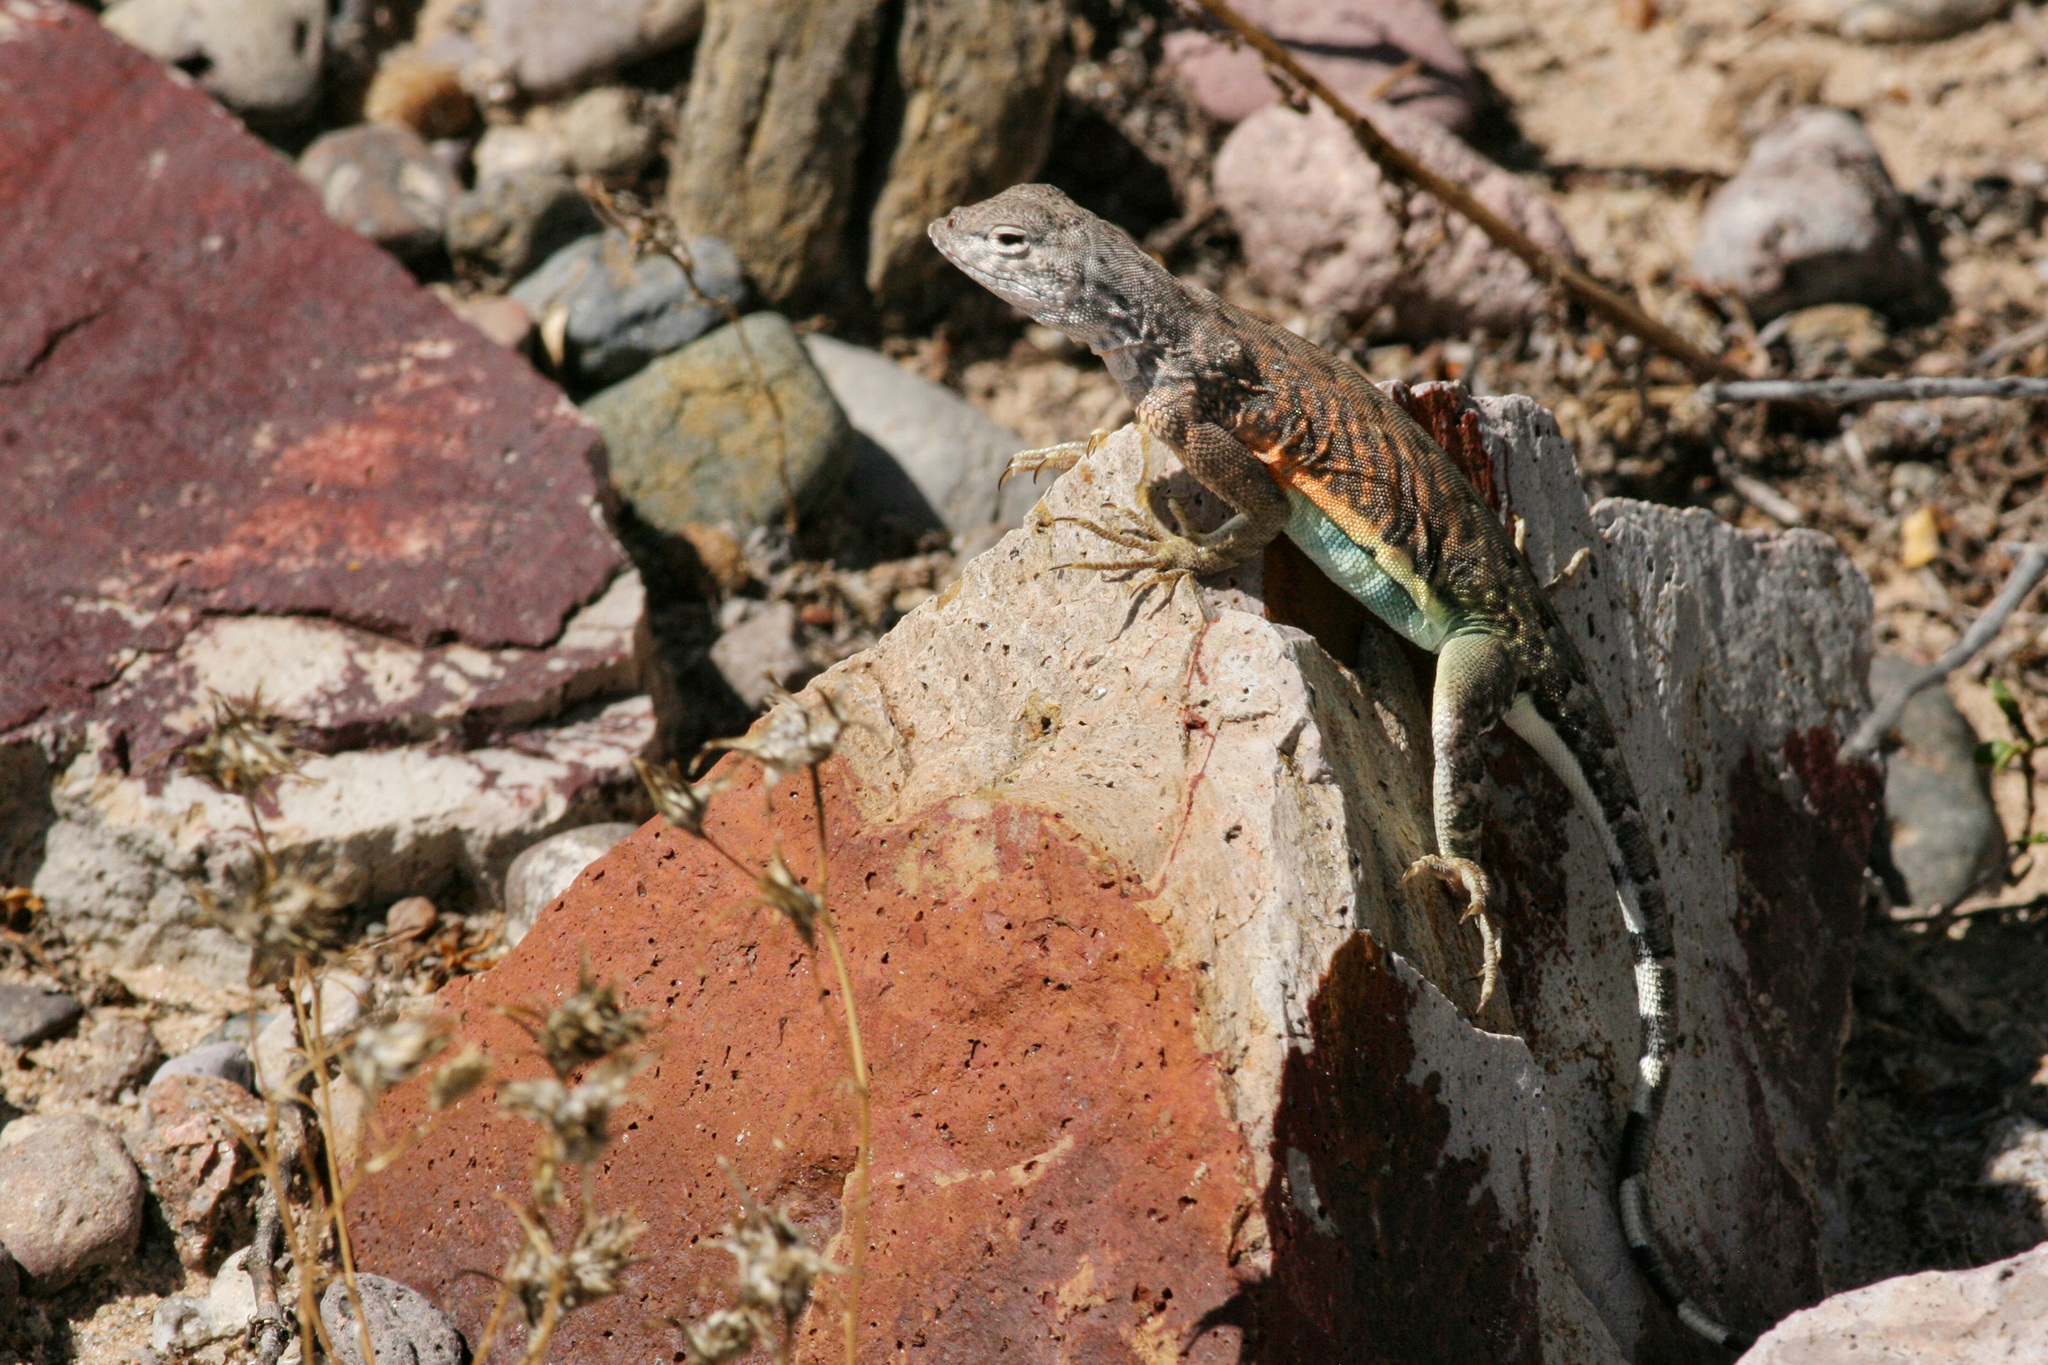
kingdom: Animalia
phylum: Chordata
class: Squamata
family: Phrynosomatidae
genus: Cophosaurus
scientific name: Cophosaurus texanus
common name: Greater earless lizard
